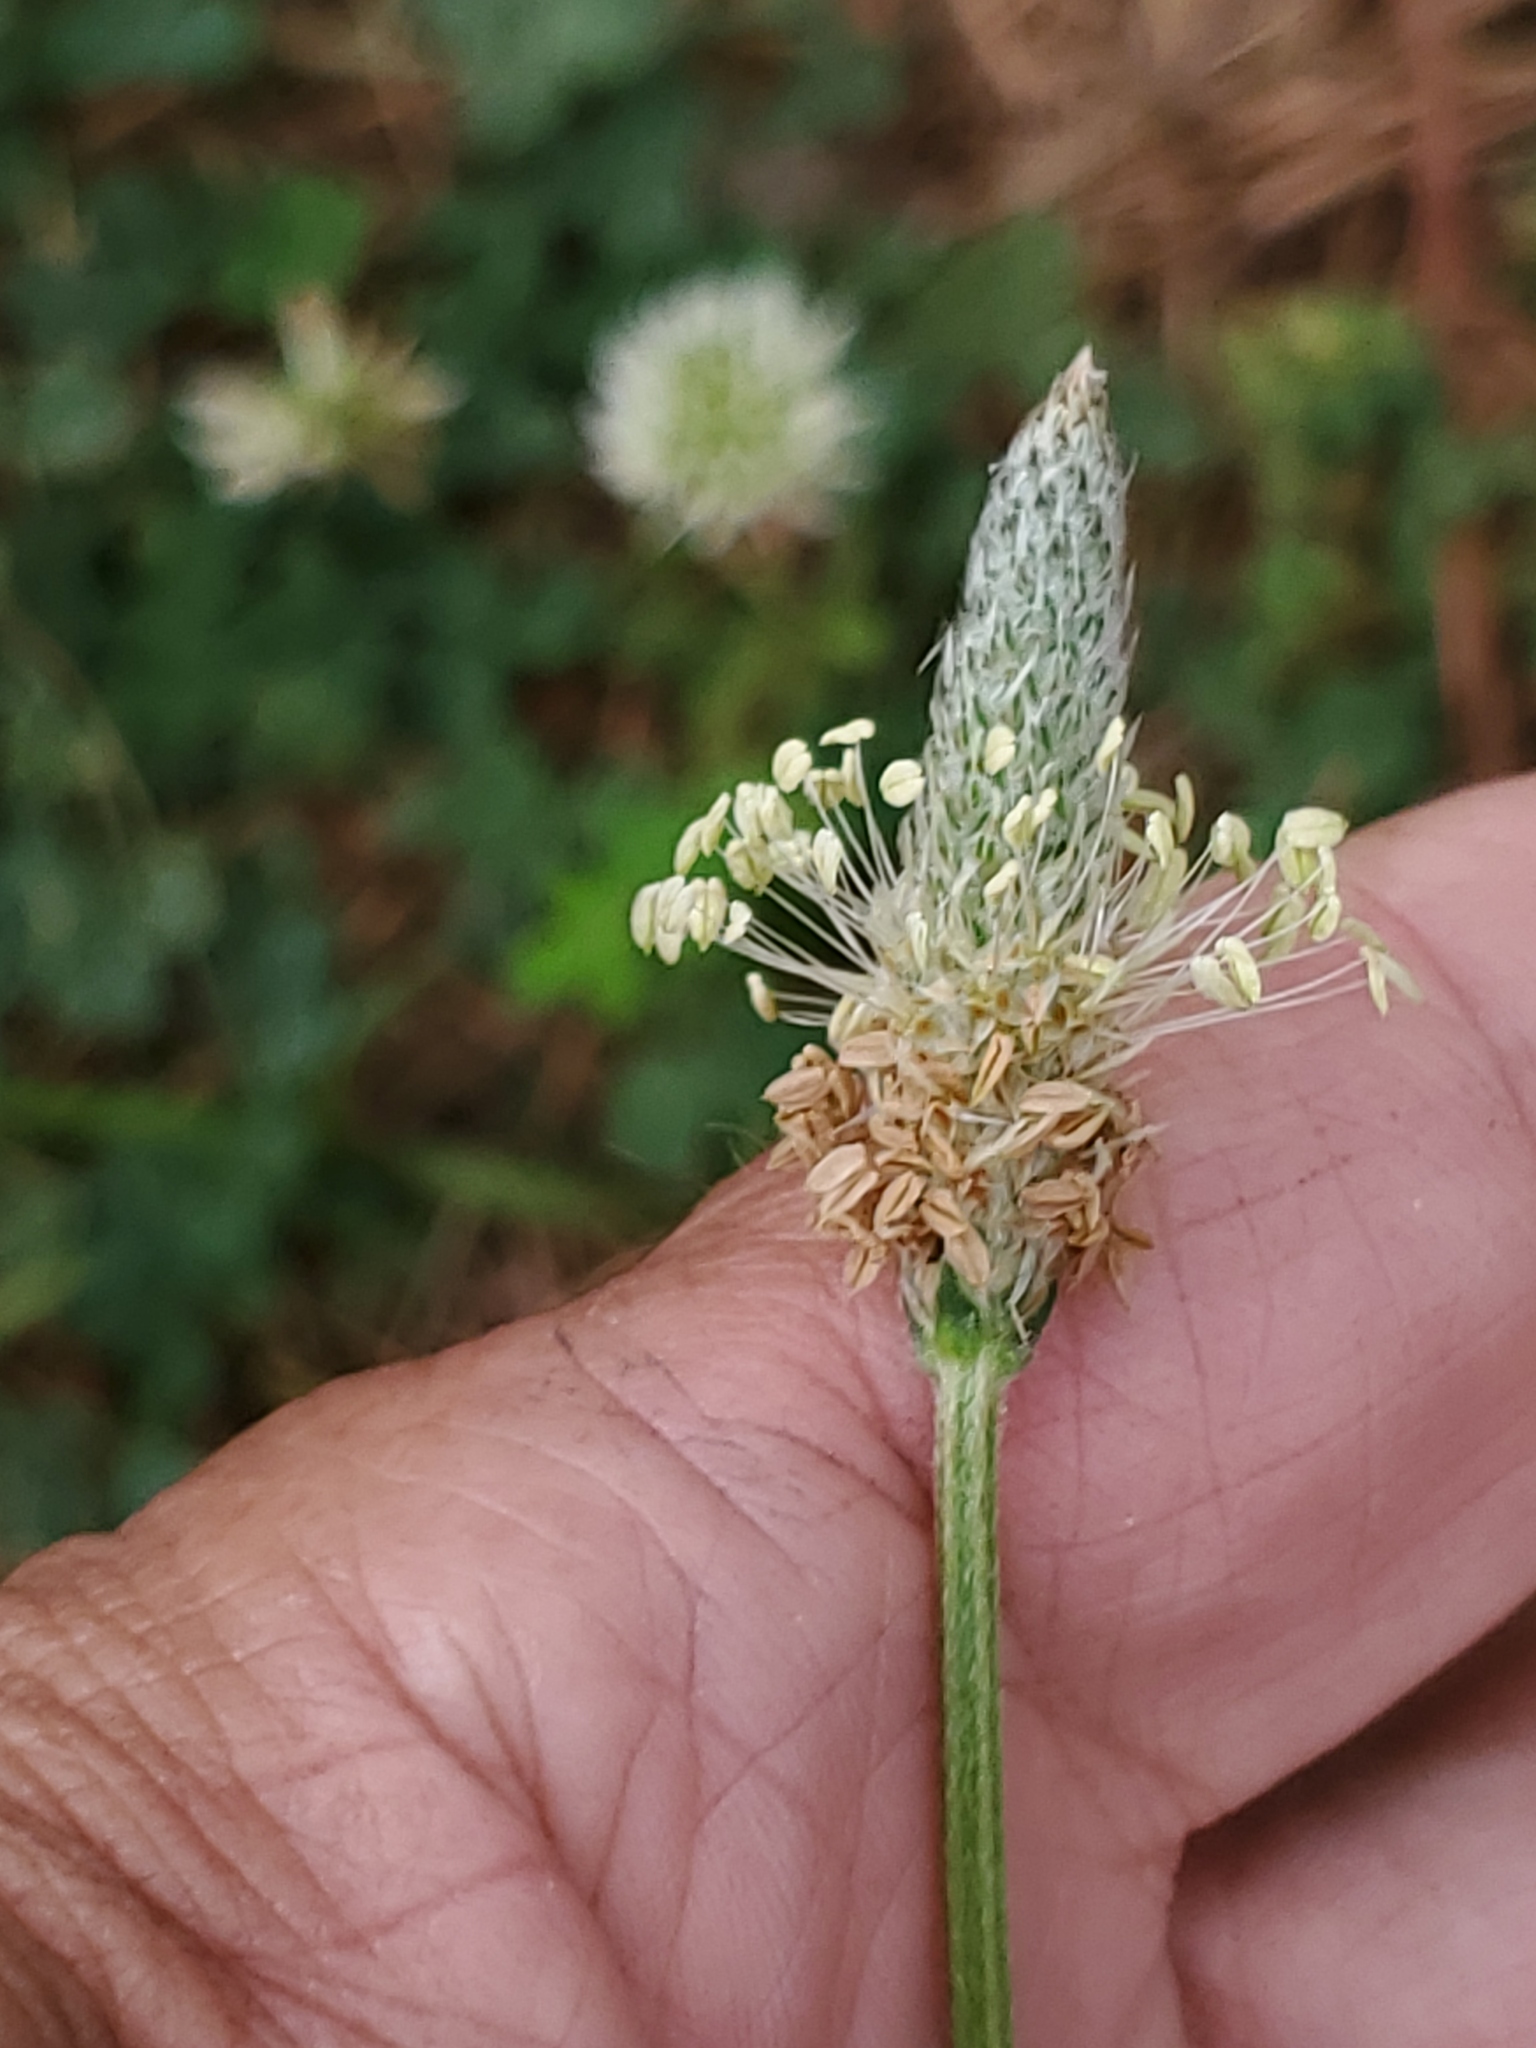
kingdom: Plantae
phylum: Tracheophyta
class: Magnoliopsida
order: Lamiales
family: Plantaginaceae
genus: Plantago
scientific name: Plantago lanceolata
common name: Ribwort plantain
